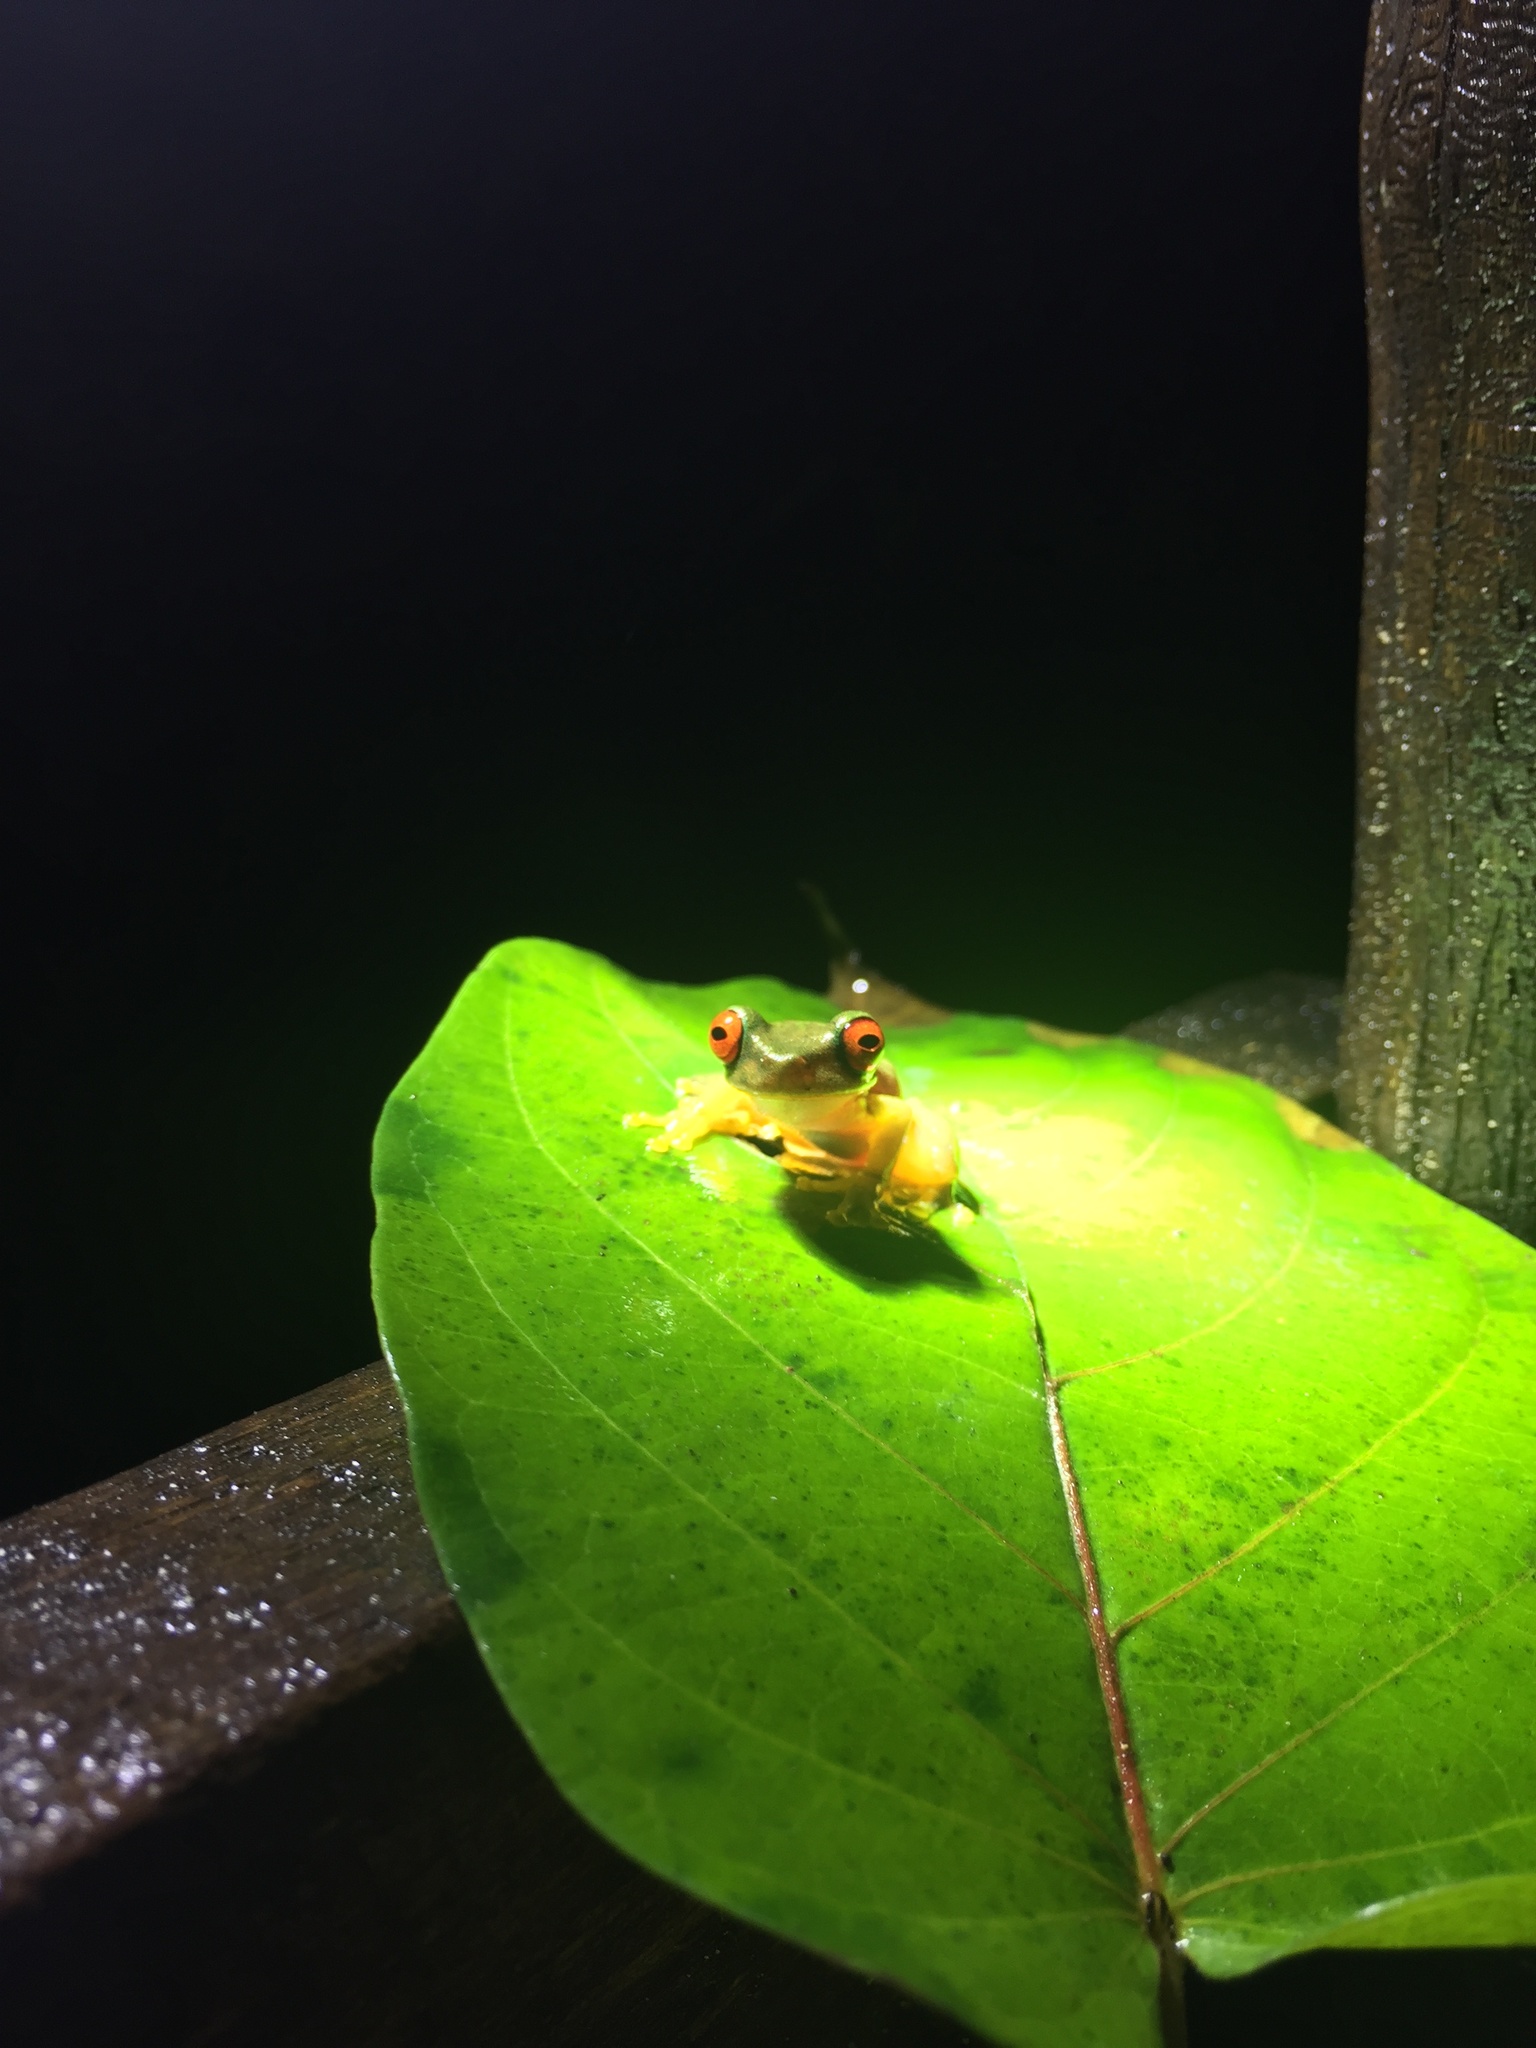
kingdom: Animalia
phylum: Chordata
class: Amphibia
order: Anura
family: Hylidae
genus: Duellmanohyla
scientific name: Duellmanohyla rufioculis
